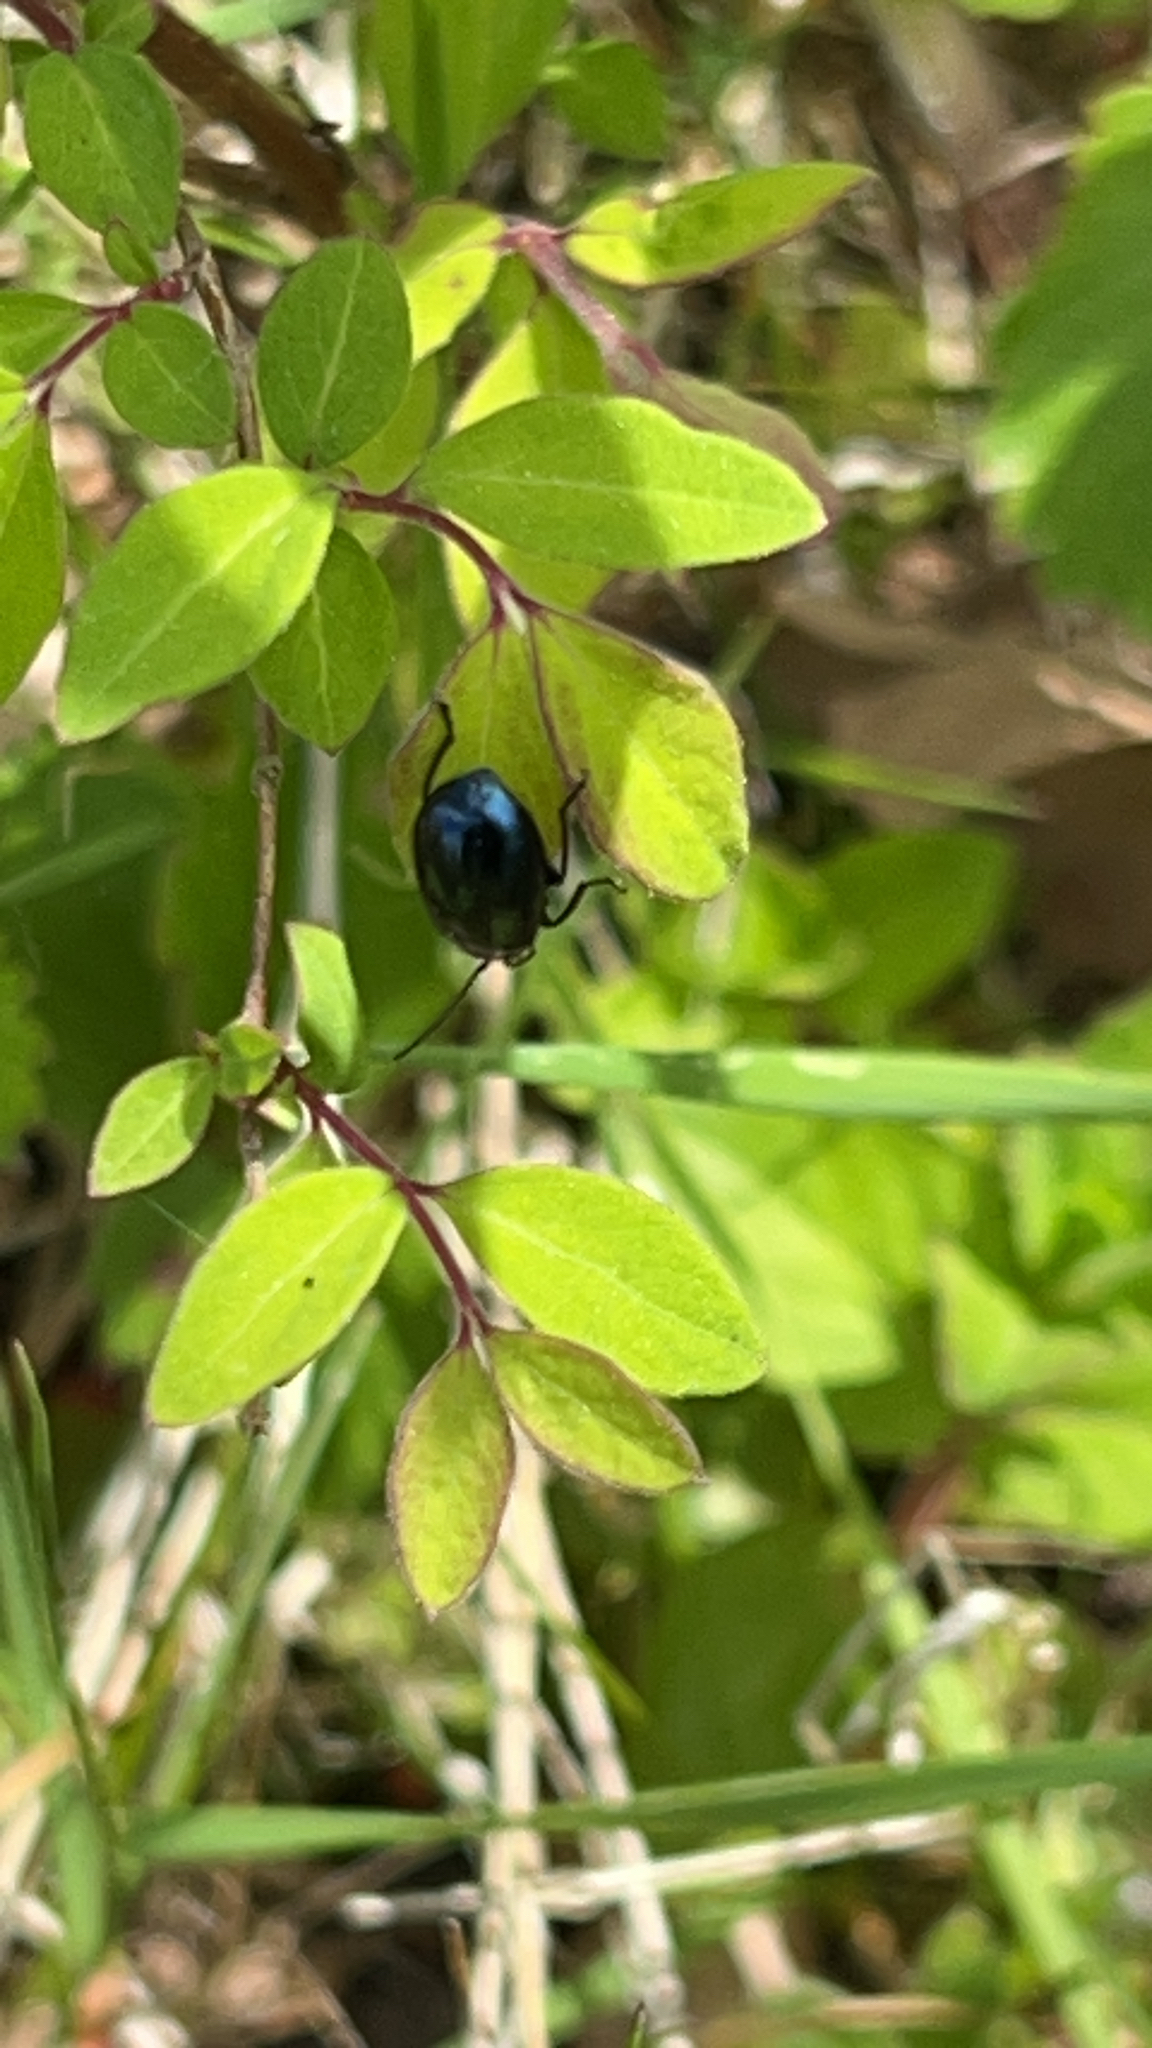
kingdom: Animalia
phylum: Arthropoda
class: Insecta
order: Coleoptera
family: Chrysomelidae
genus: Agelastica
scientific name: Agelastica alni
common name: Alder leaf beetle
